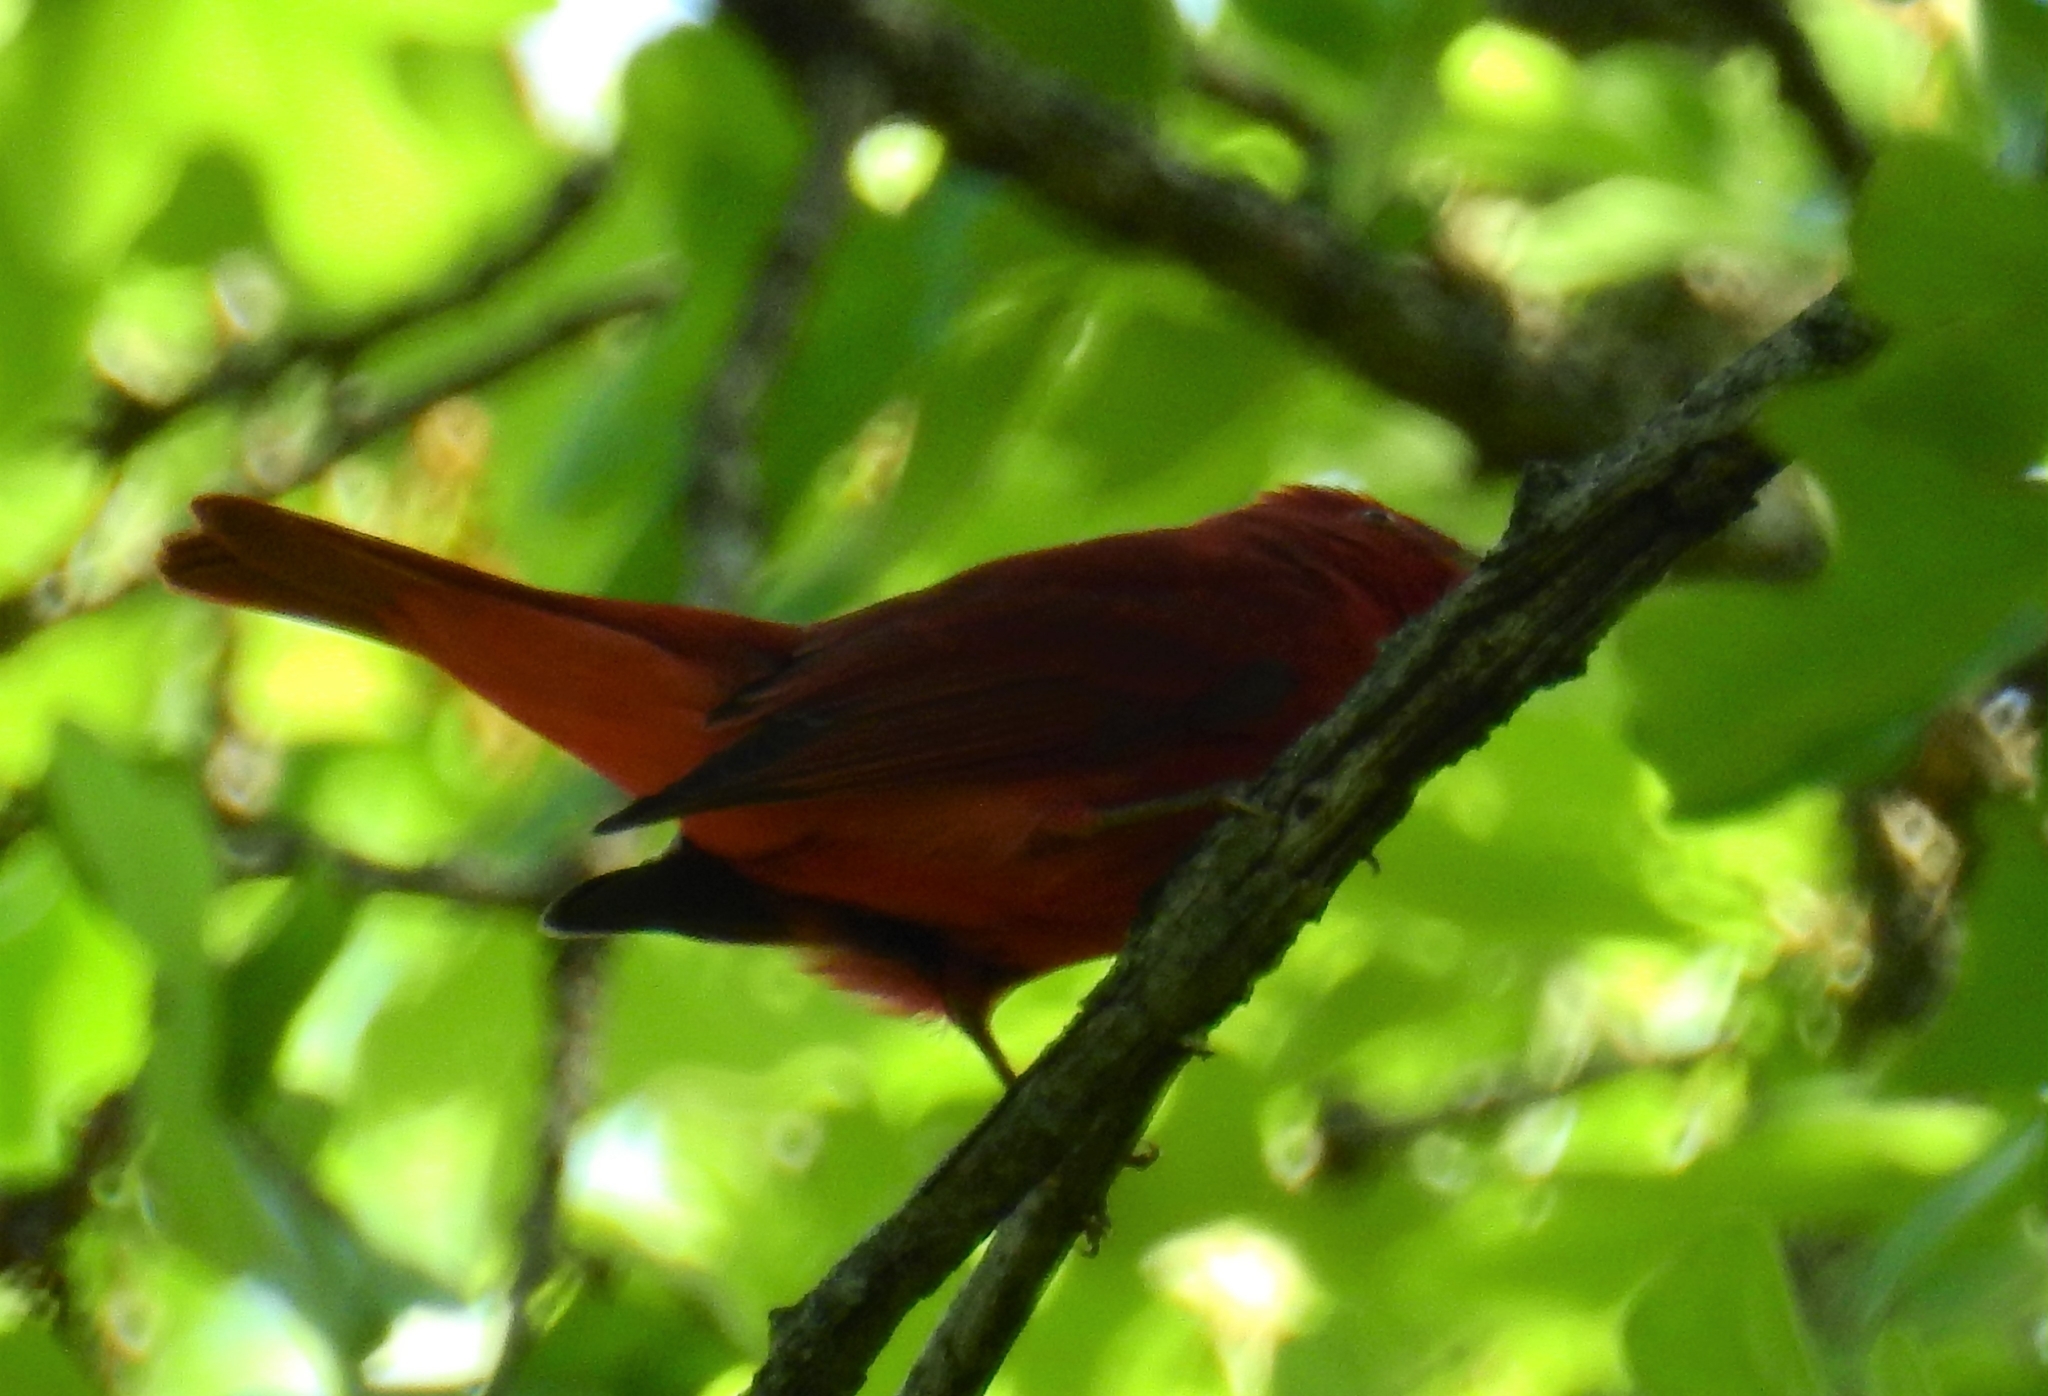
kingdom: Animalia
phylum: Chordata
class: Aves
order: Passeriformes
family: Cardinalidae
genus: Piranga
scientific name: Piranga rubra
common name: Summer tanager
